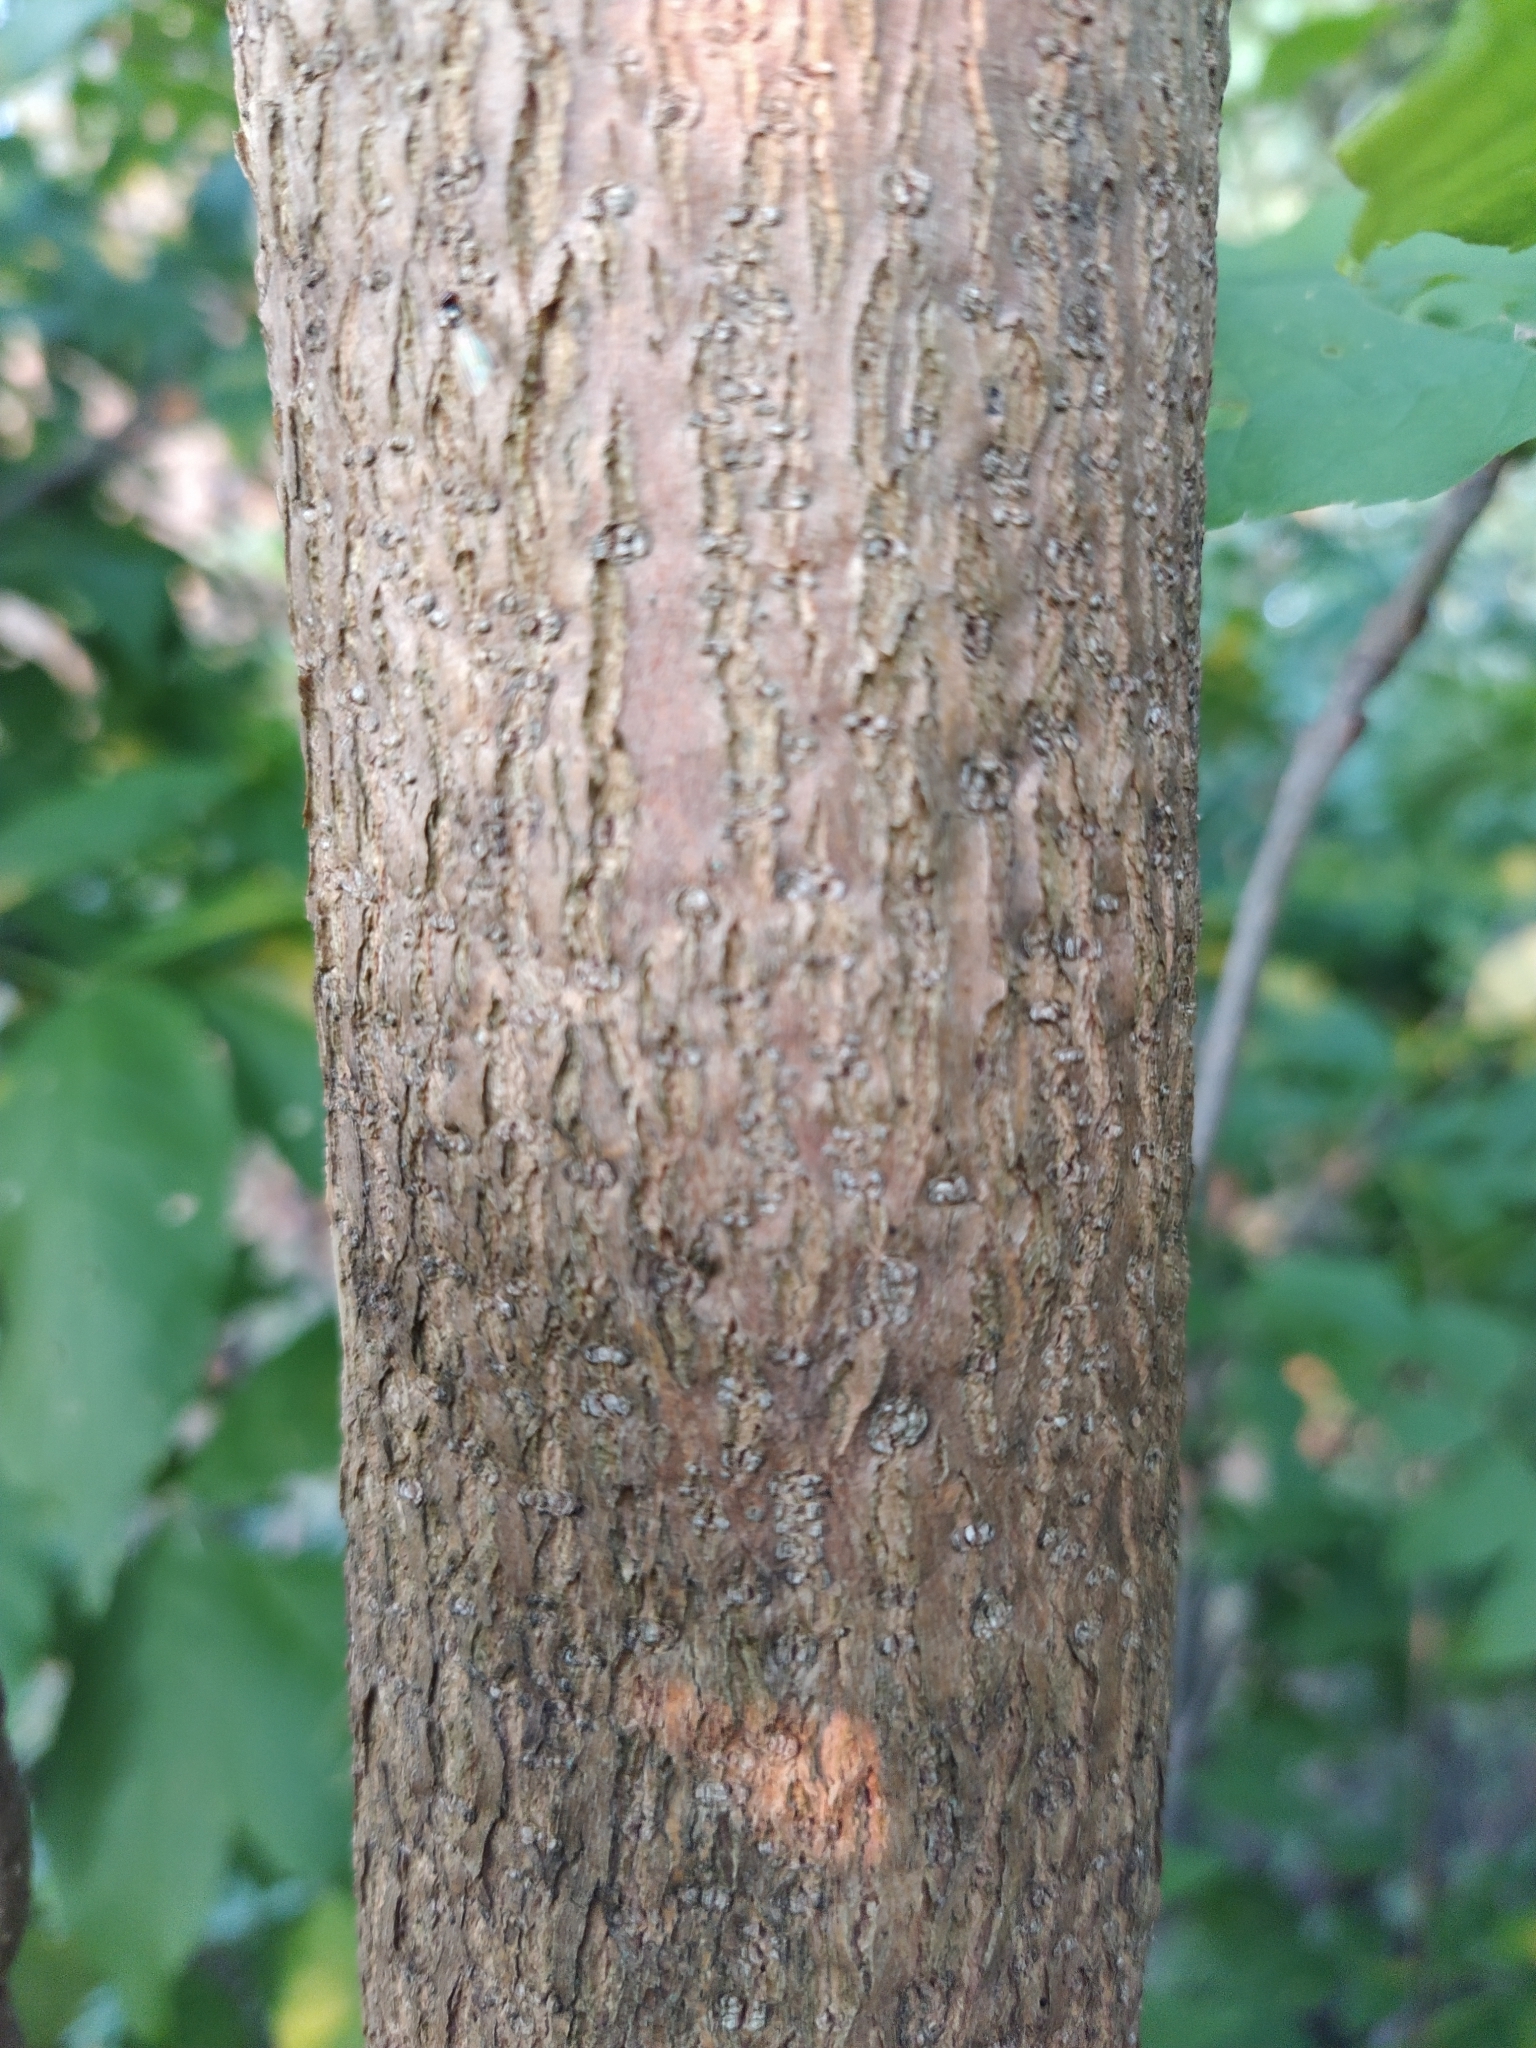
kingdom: Plantae
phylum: Tracheophyta
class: Magnoliopsida
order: Lamiales
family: Oleaceae
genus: Fraxinus
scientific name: Fraxinus pennsylvanica
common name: Green ash
